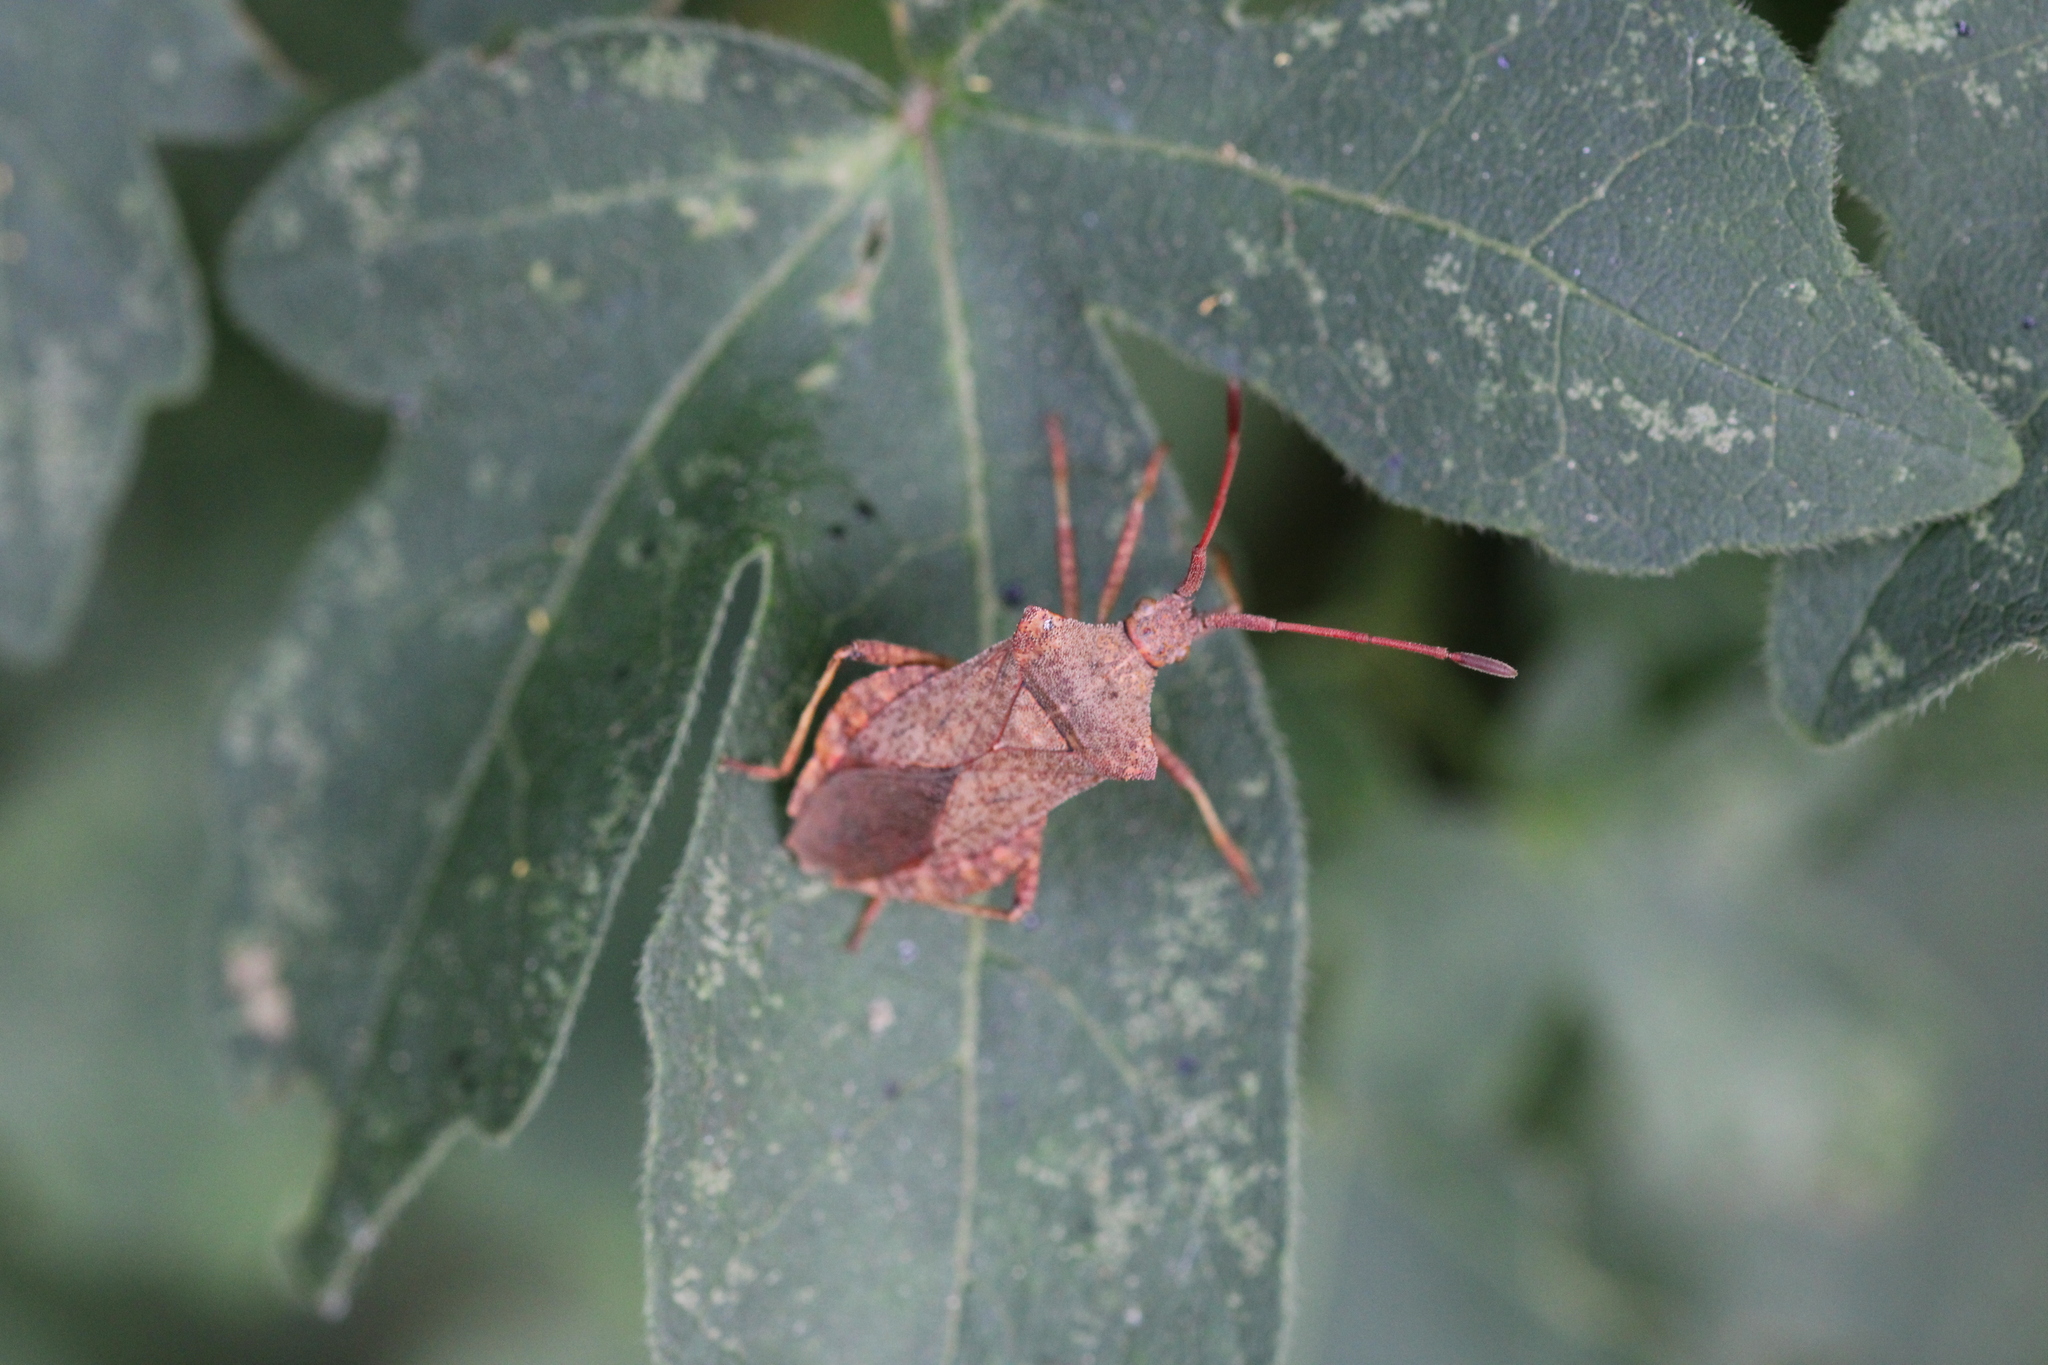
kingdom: Animalia
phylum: Arthropoda
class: Insecta
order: Hemiptera
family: Coreidae
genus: Coreus
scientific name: Coreus marginatus
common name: Dock bug
